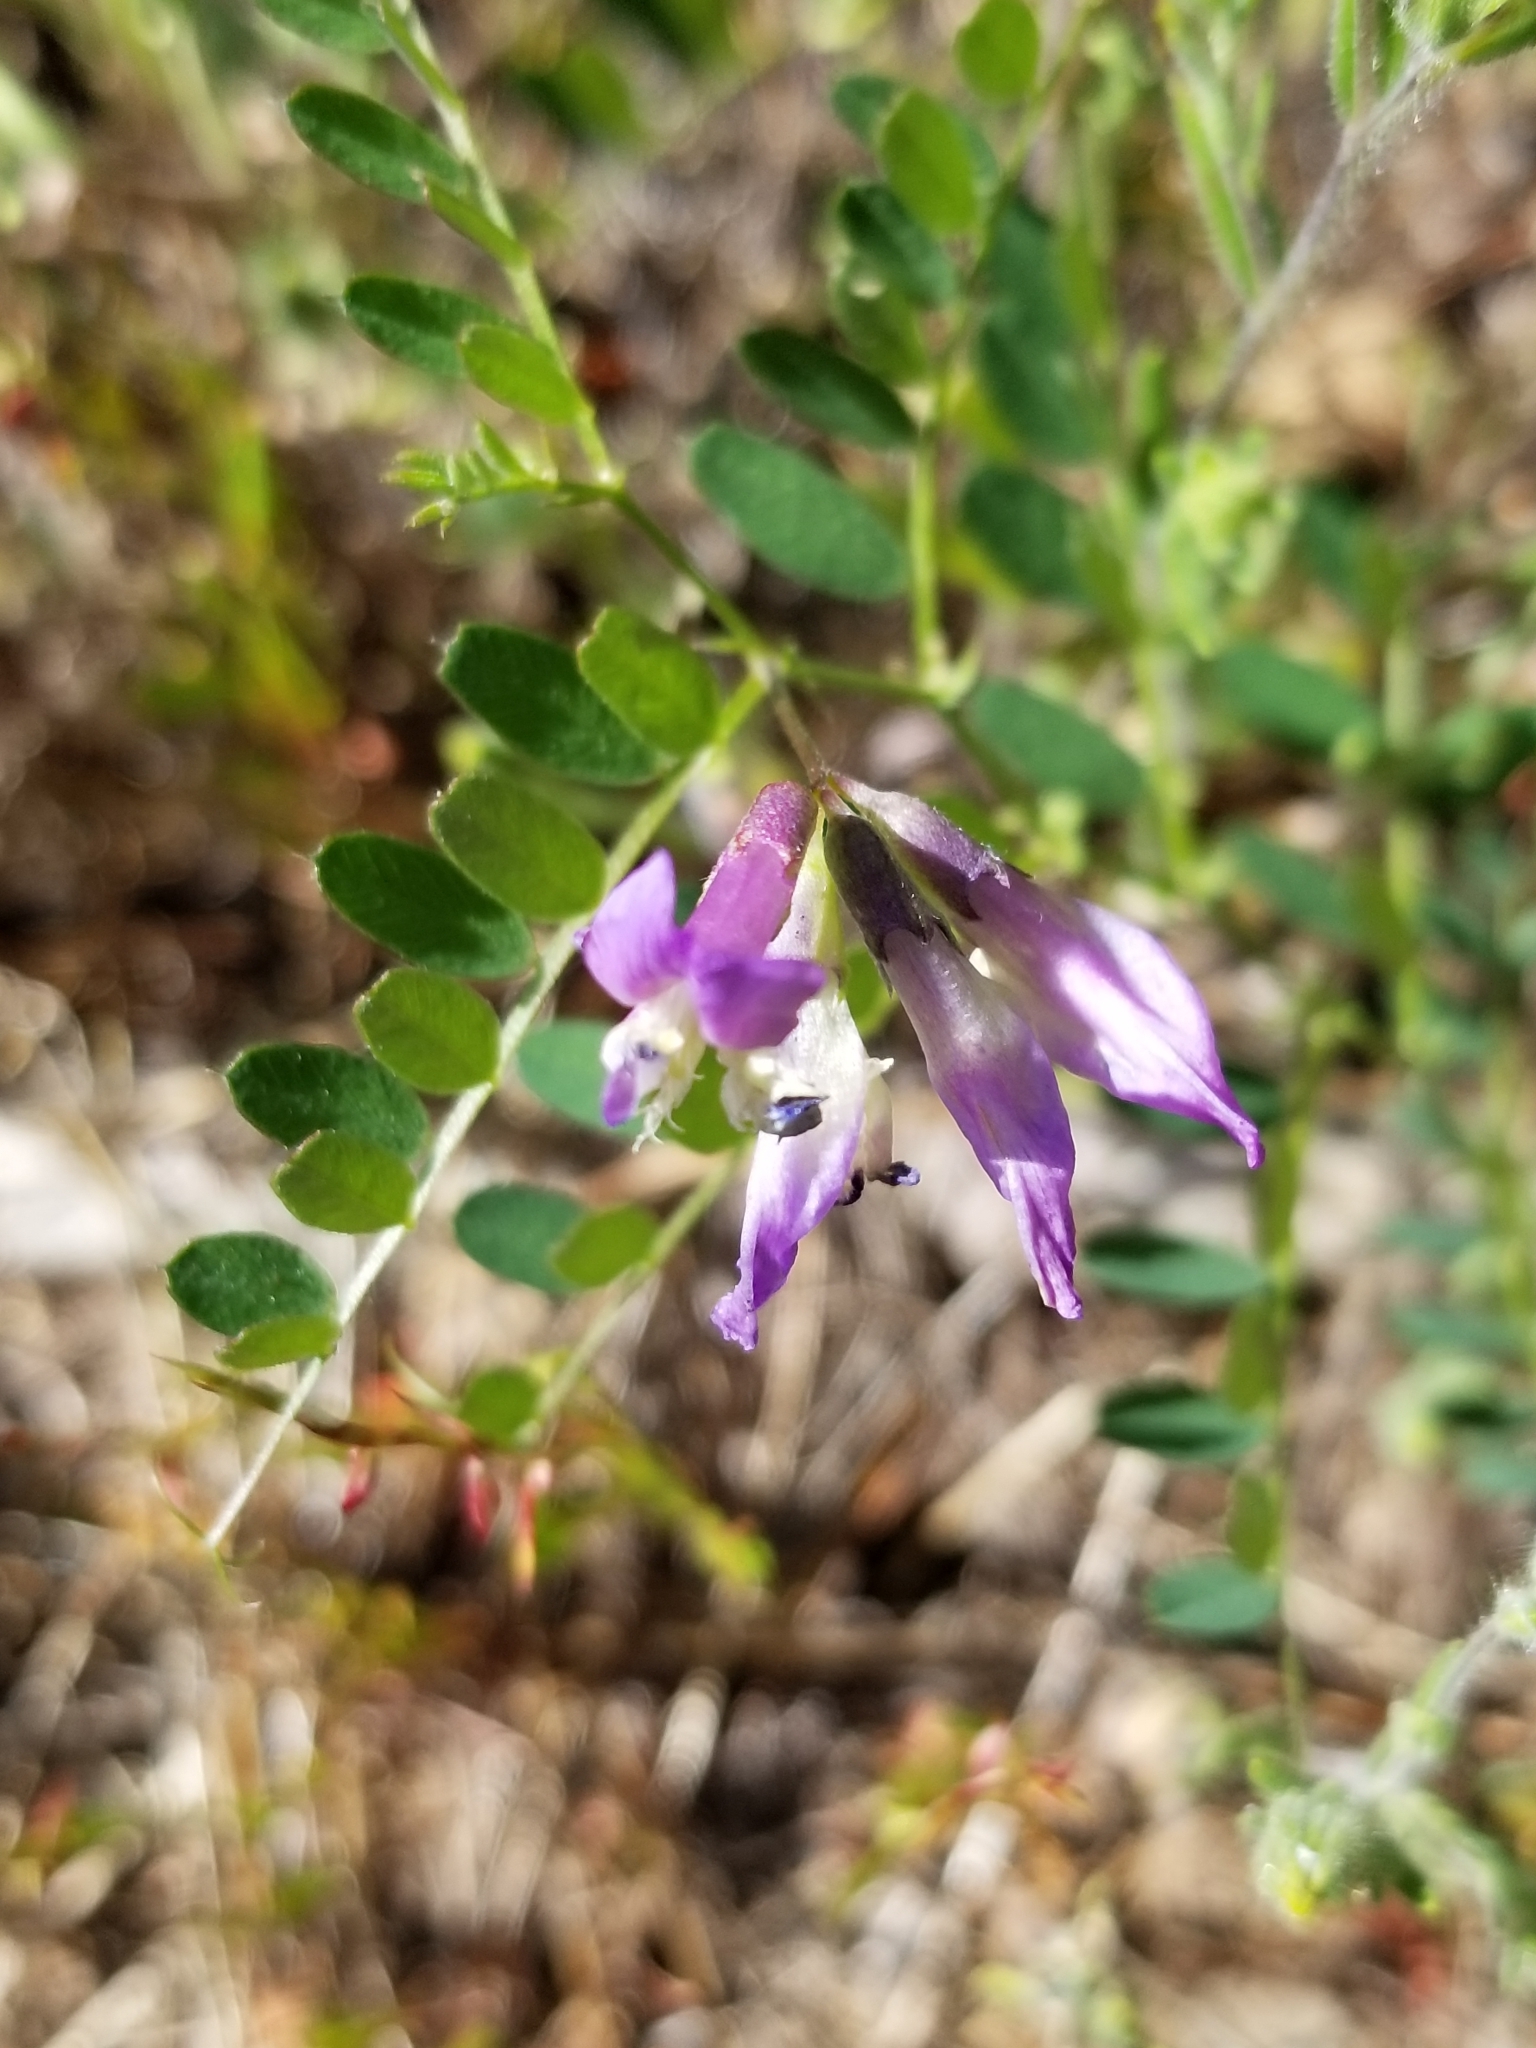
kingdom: Plantae
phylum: Tracheophyta
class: Magnoliopsida
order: Fabales
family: Fabaceae
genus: Vicia
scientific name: Vicia americana
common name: American vetch
